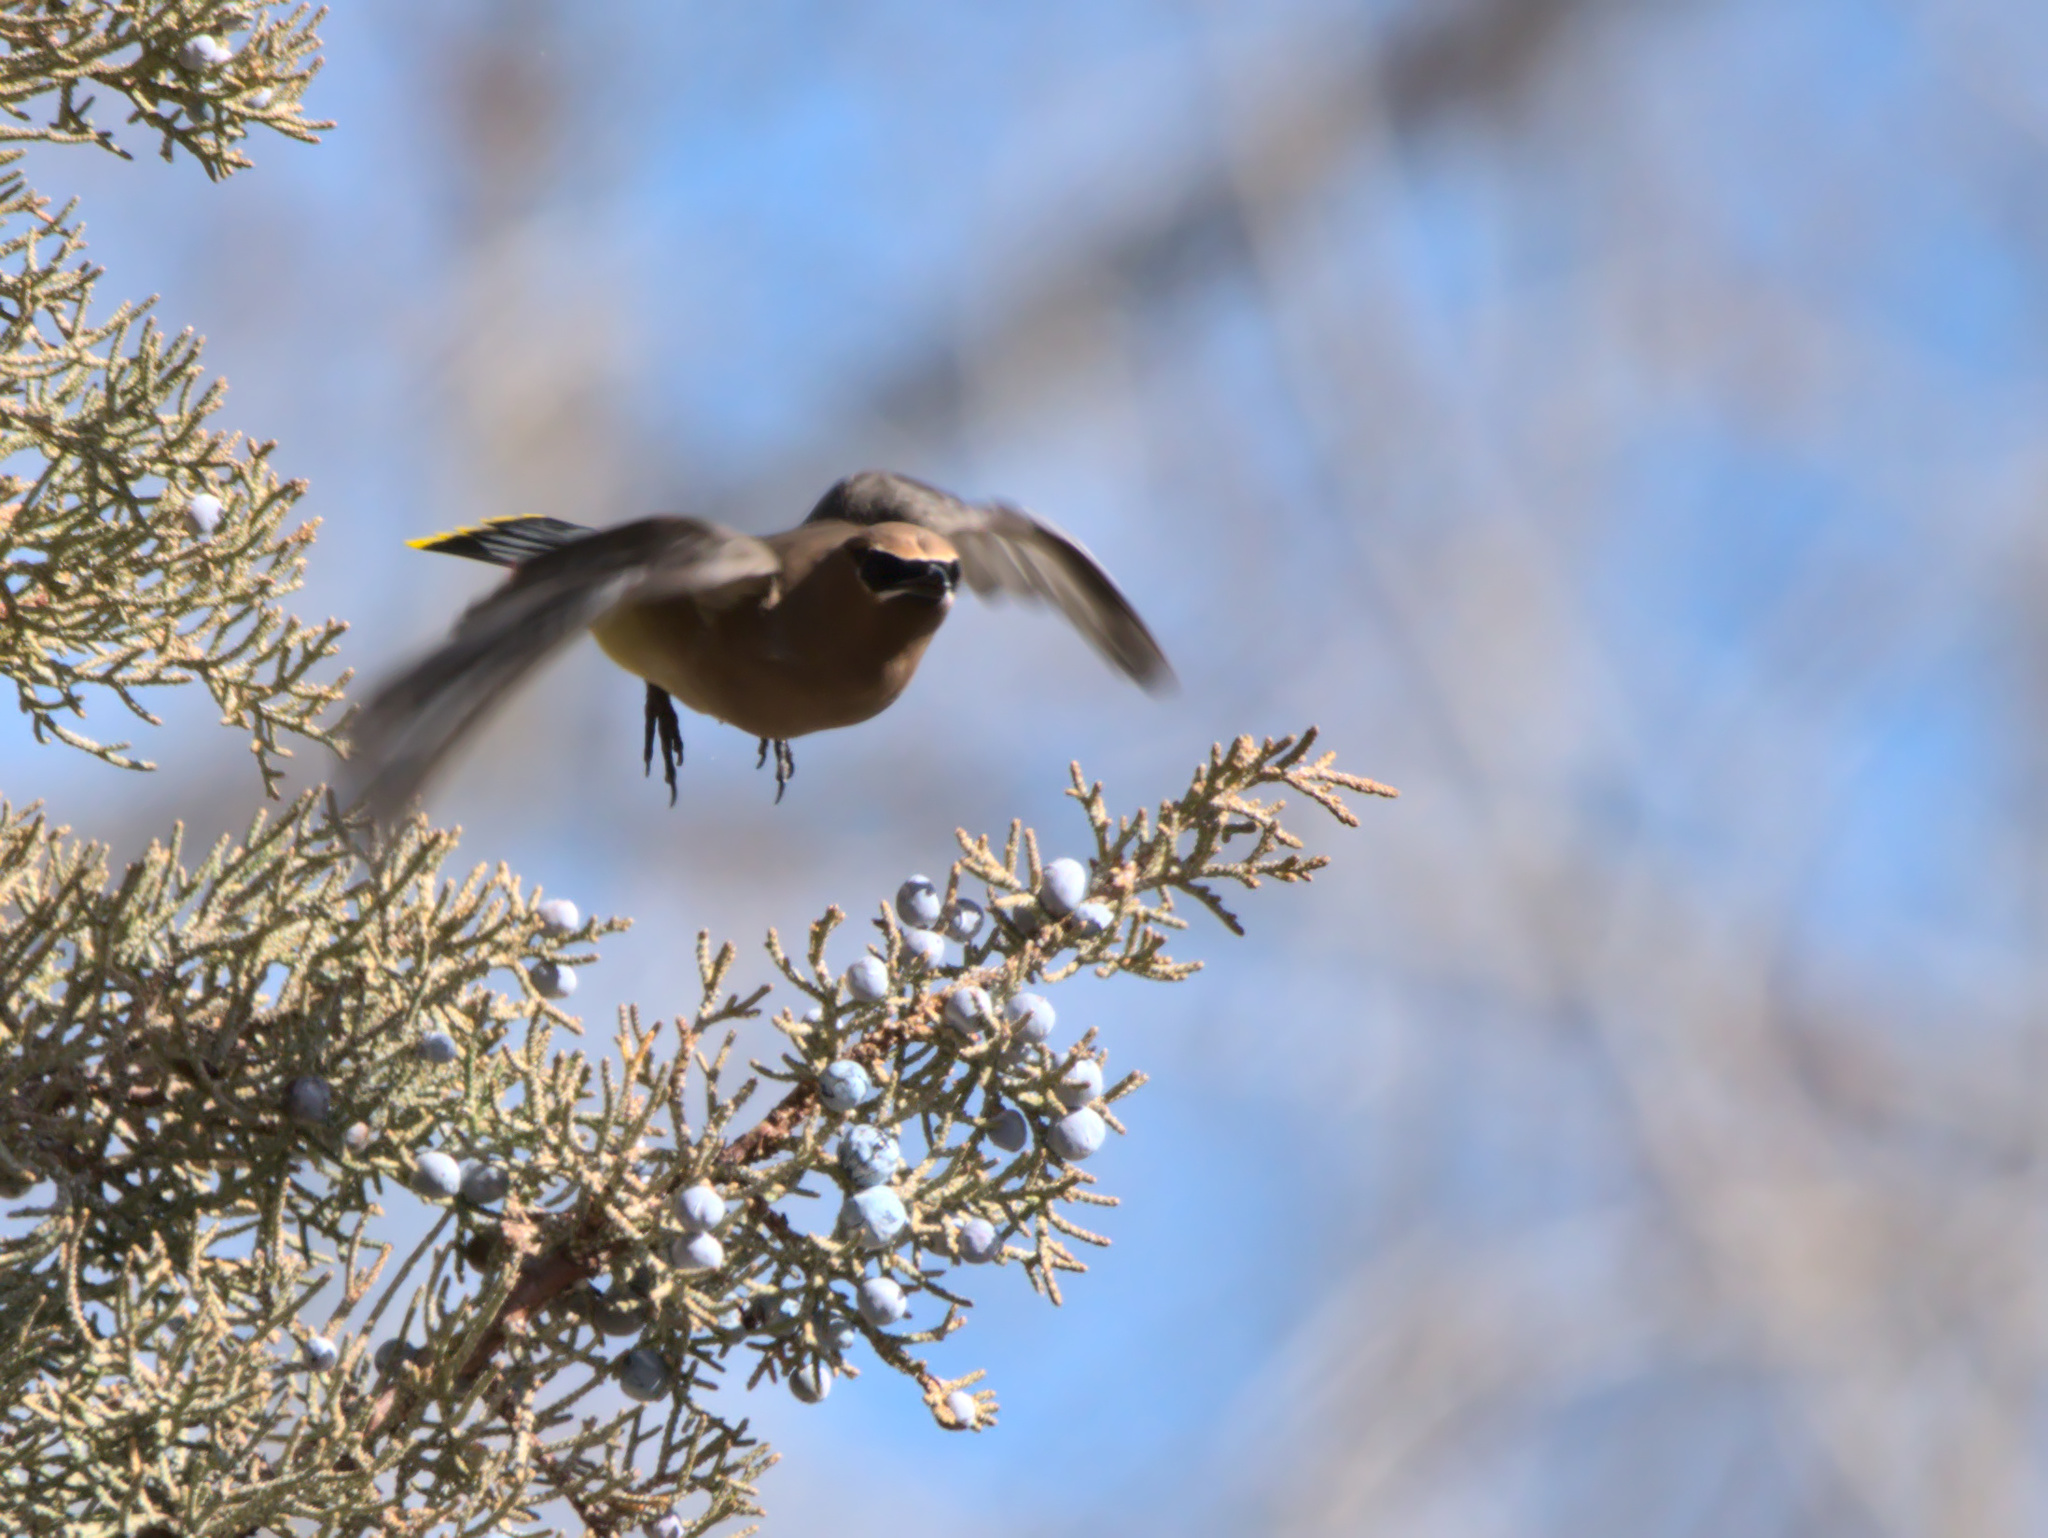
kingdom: Animalia
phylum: Chordata
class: Aves
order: Passeriformes
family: Bombycillidae
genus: Bombycilla
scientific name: Bombycilla cedrorum
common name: Cedar waxwing
